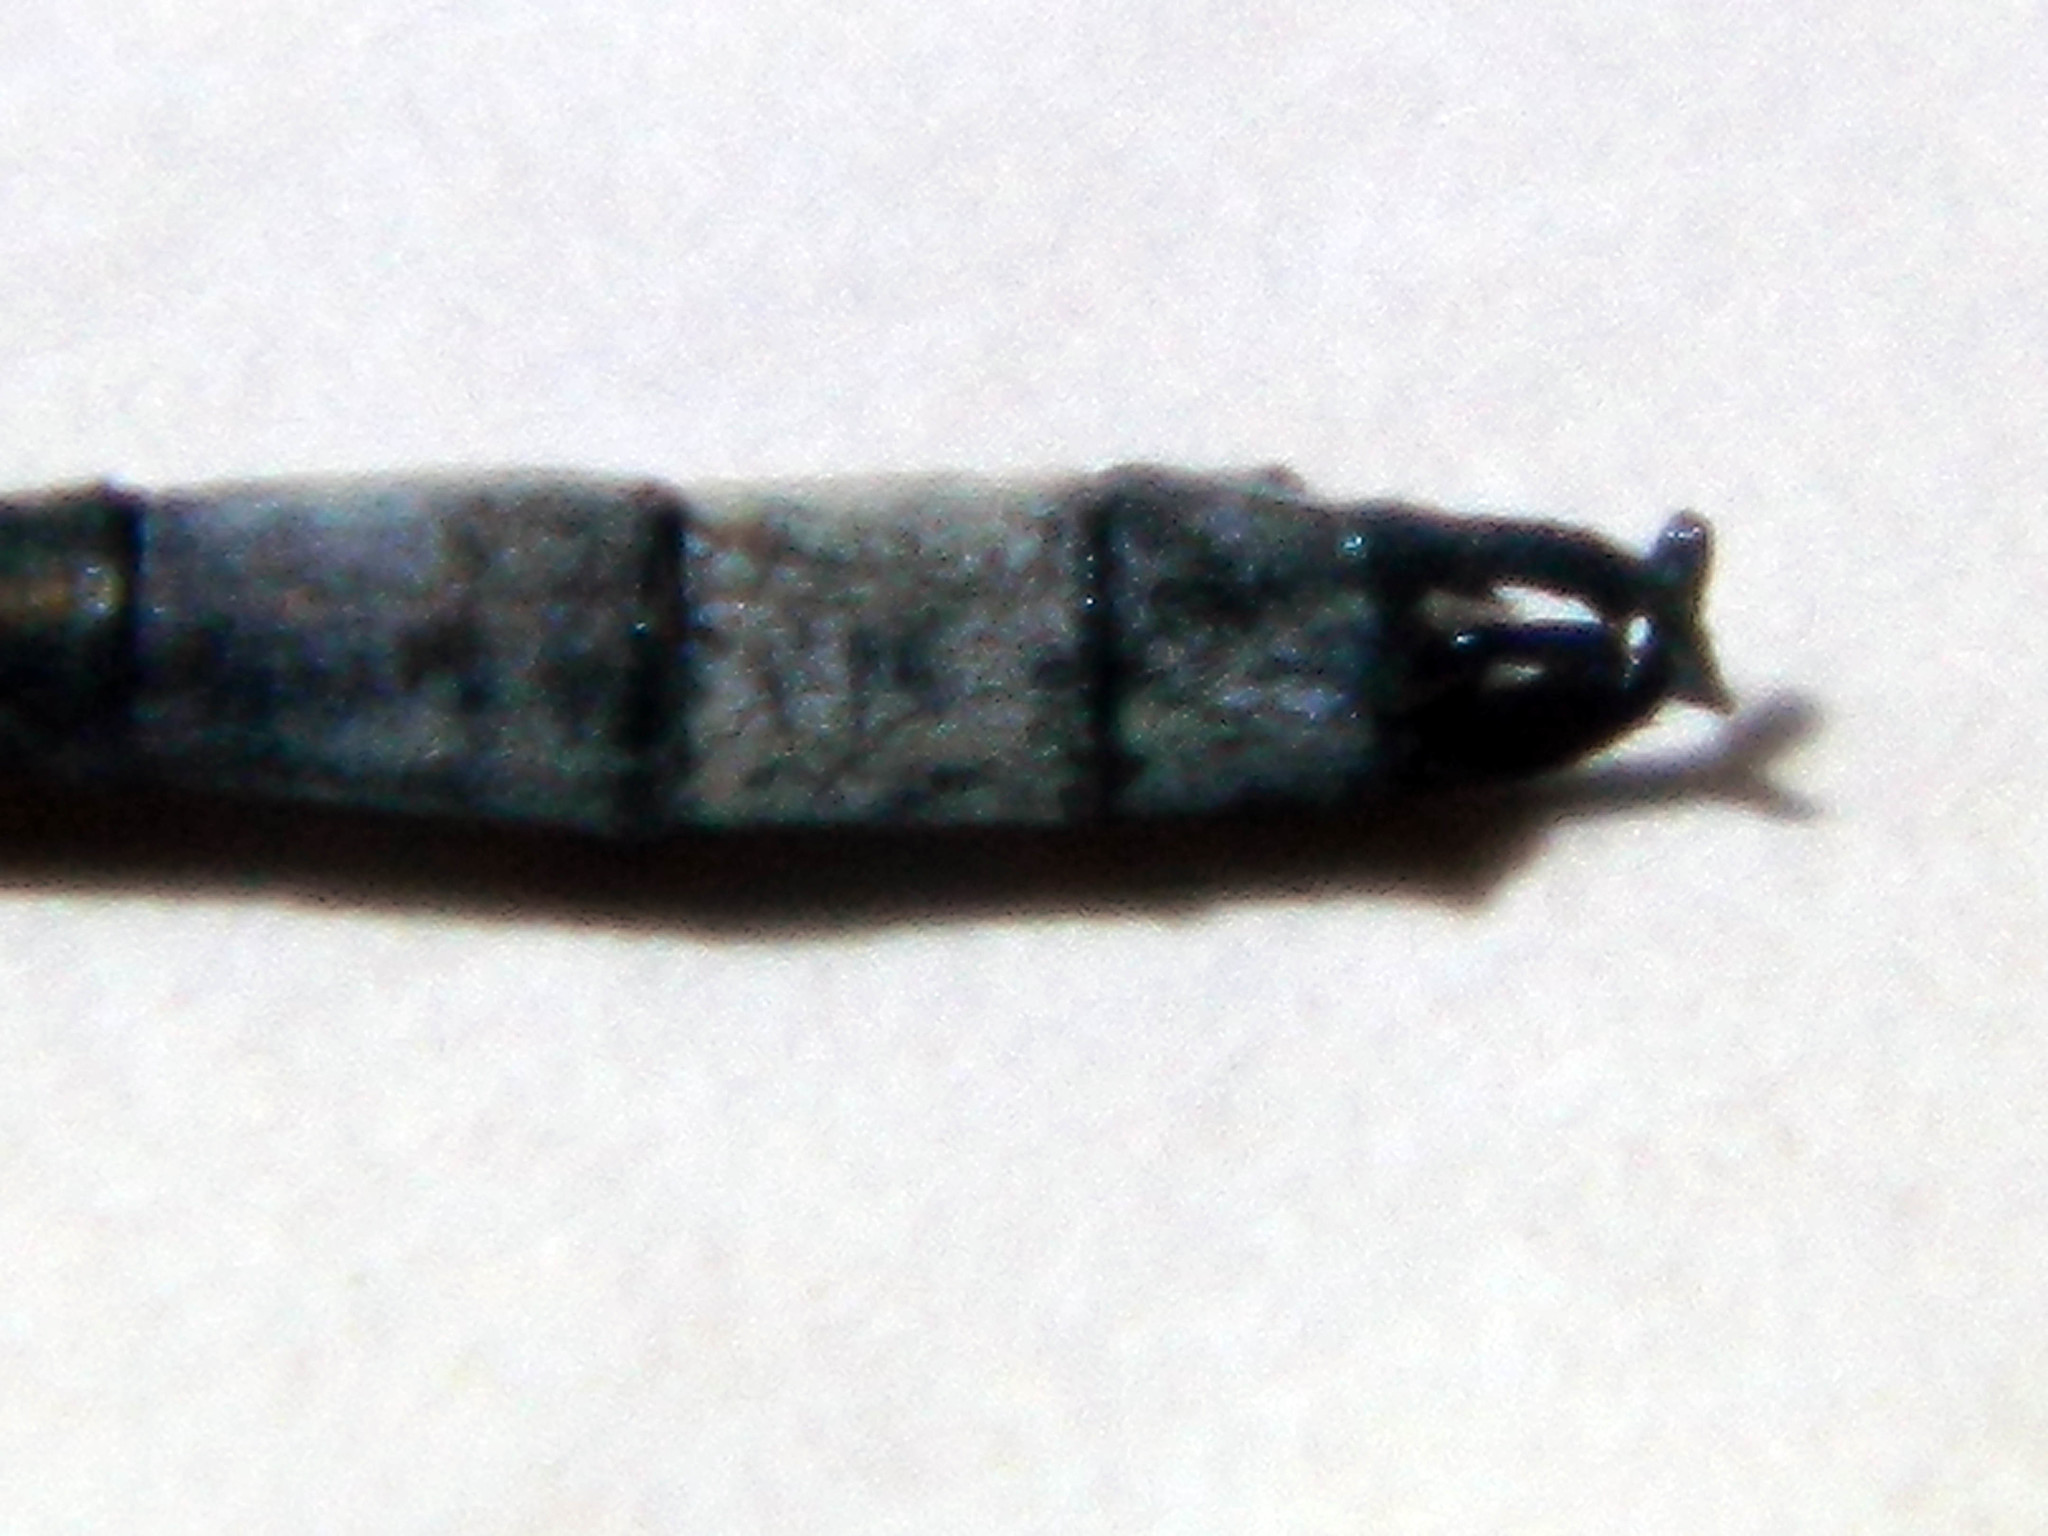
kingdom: Animalia
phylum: Arthropoda
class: Insecta
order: Odonata
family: Lestidae
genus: Lestes
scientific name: Lestes disjunctus
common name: Northern spreadwing
